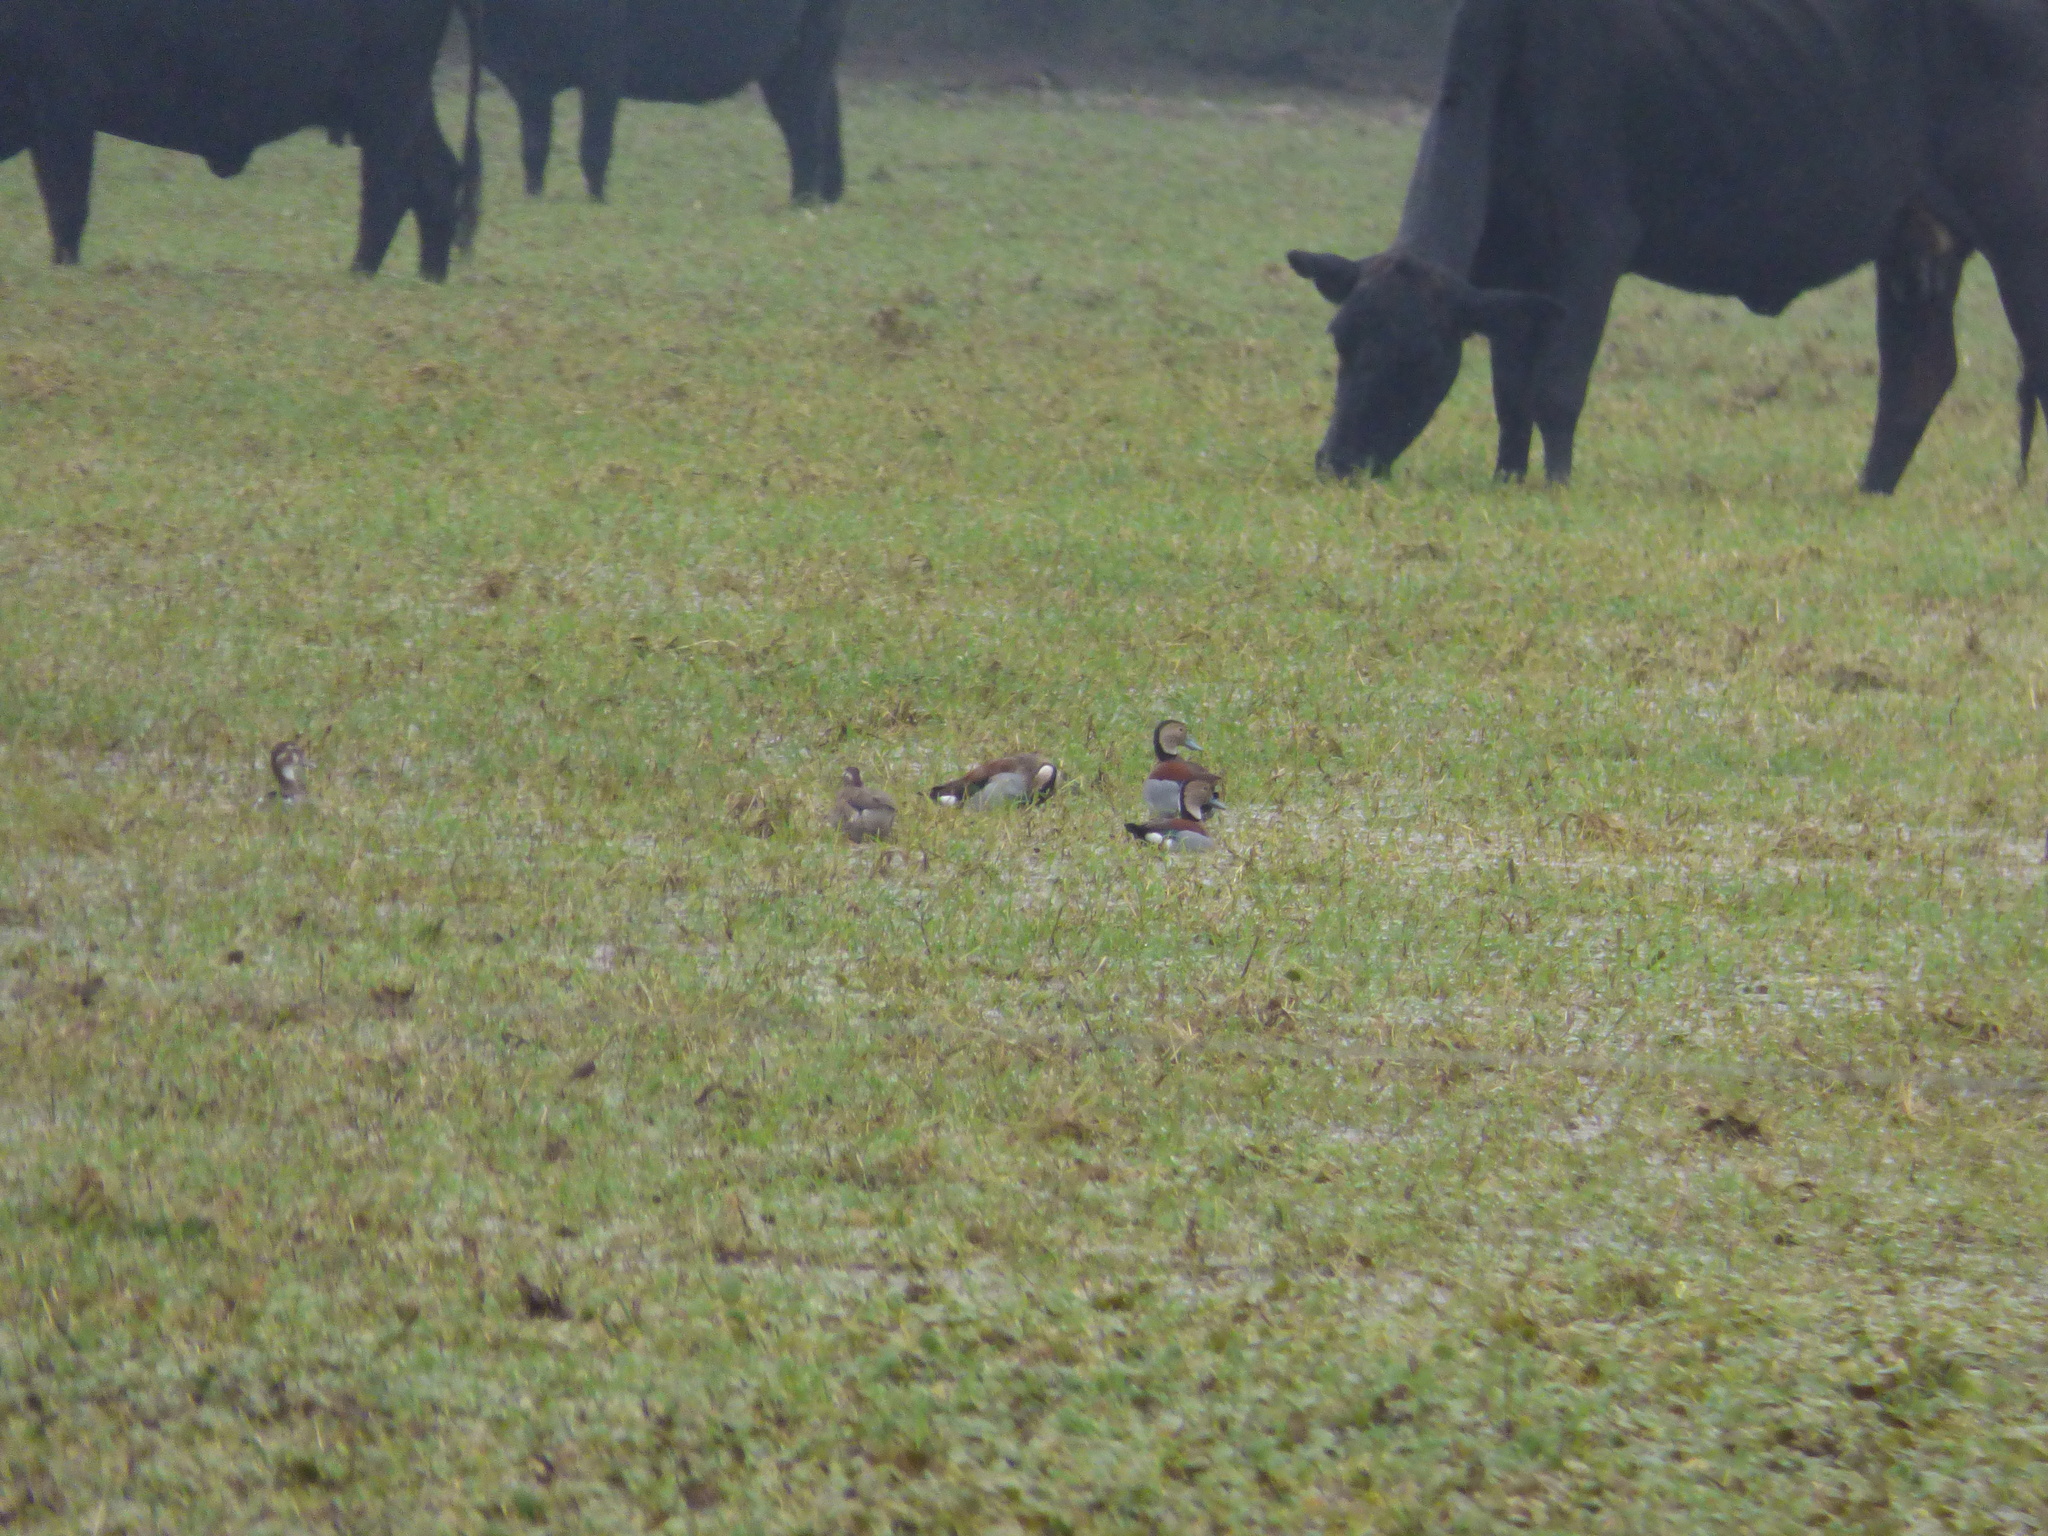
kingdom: Animalia
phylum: Chordata
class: Aves
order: Anseriformes
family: Anatidae
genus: Callonetta
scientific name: Callonetta leucophrys
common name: Ringed teal
